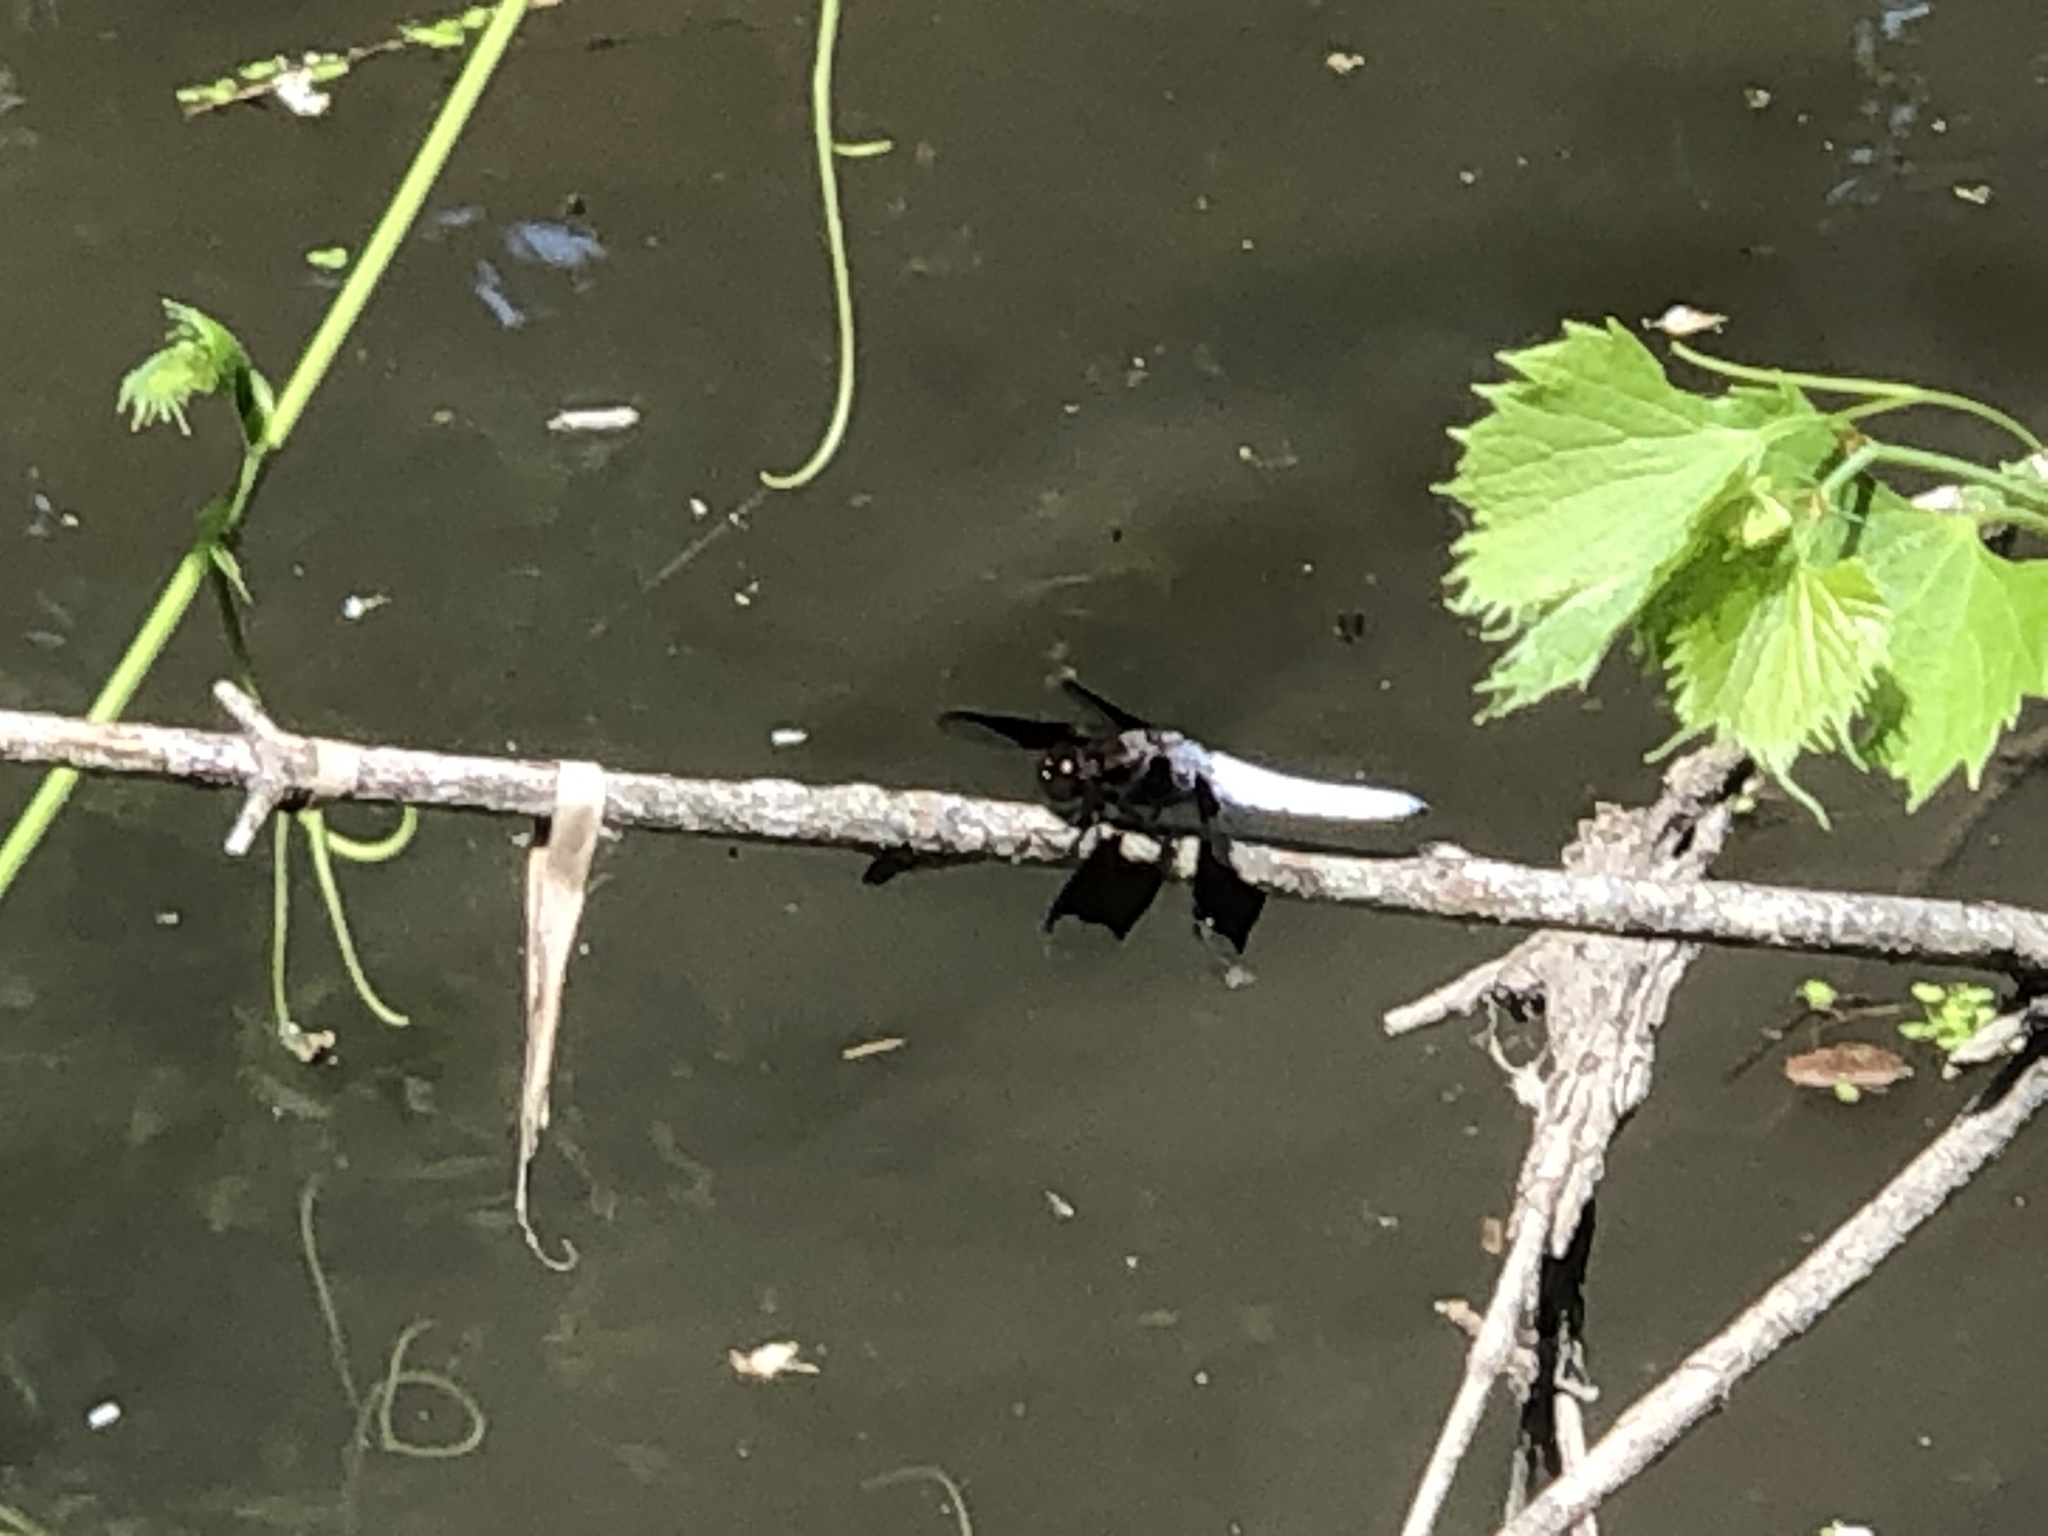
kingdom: Animalia
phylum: Arthropoda
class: Insecta
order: Odonata
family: Libellulidae
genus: Plathemis
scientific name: Plathemis lydia
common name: Common whitetail
